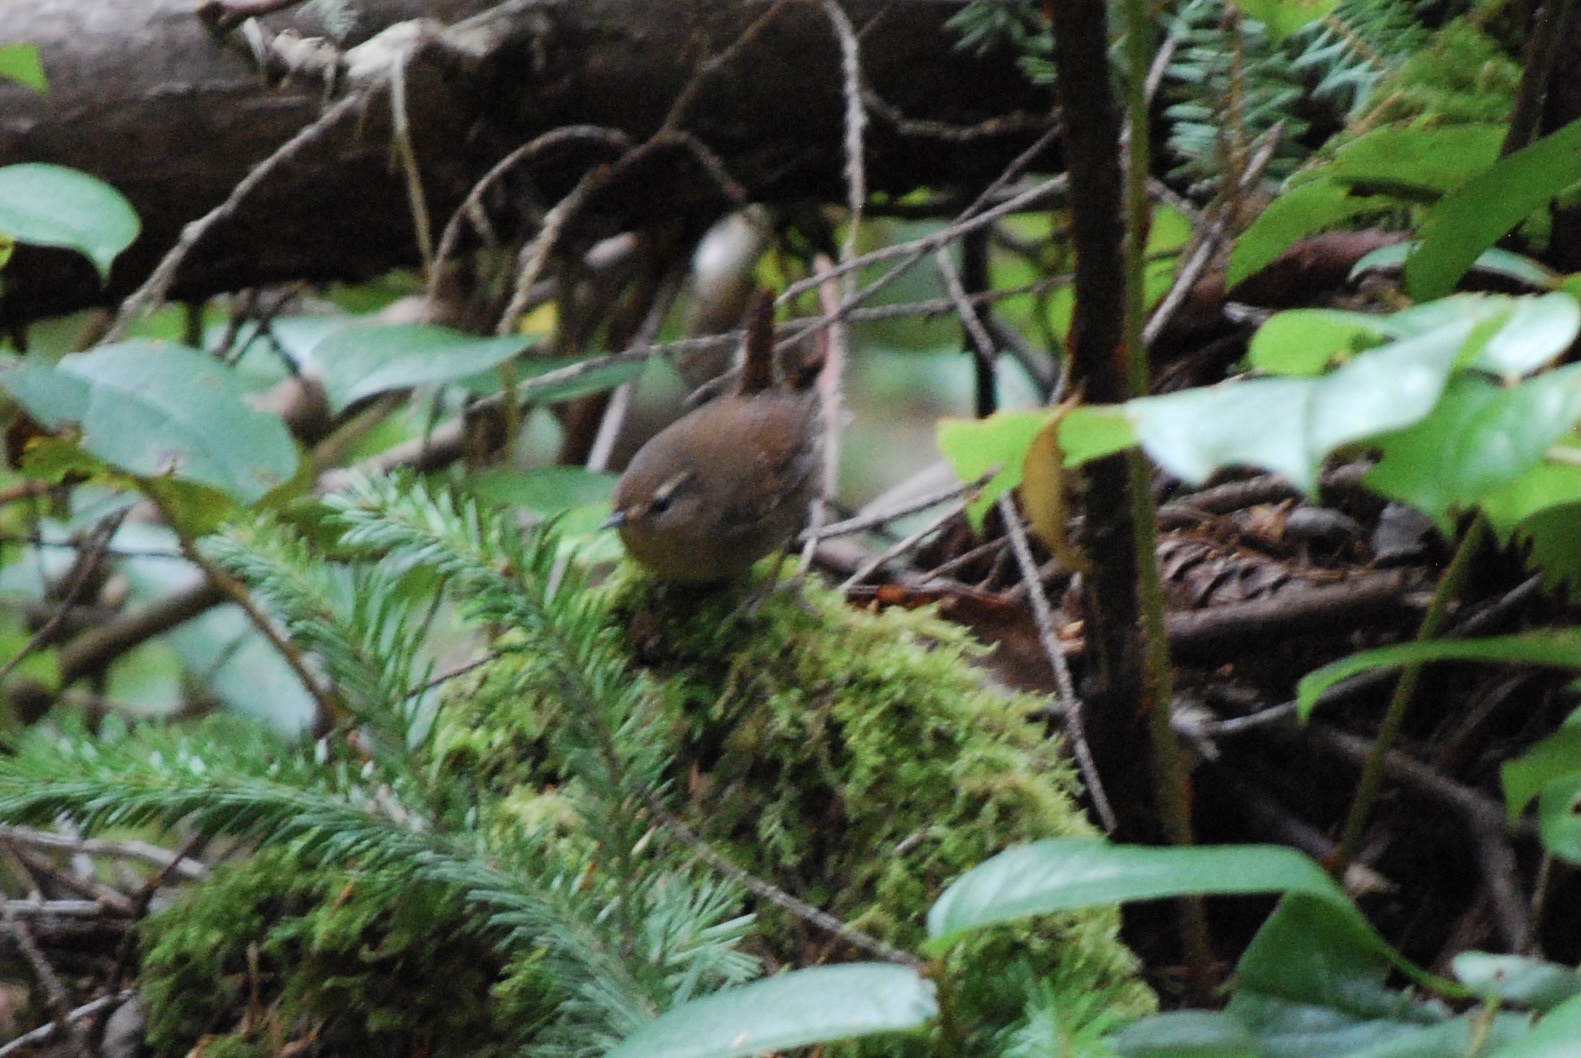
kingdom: Animalia
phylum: Chordata
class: Aves
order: Passeriformes
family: Troglodytidae
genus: Troglodytes
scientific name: Troglodytes pacificus
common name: Pacific wren
